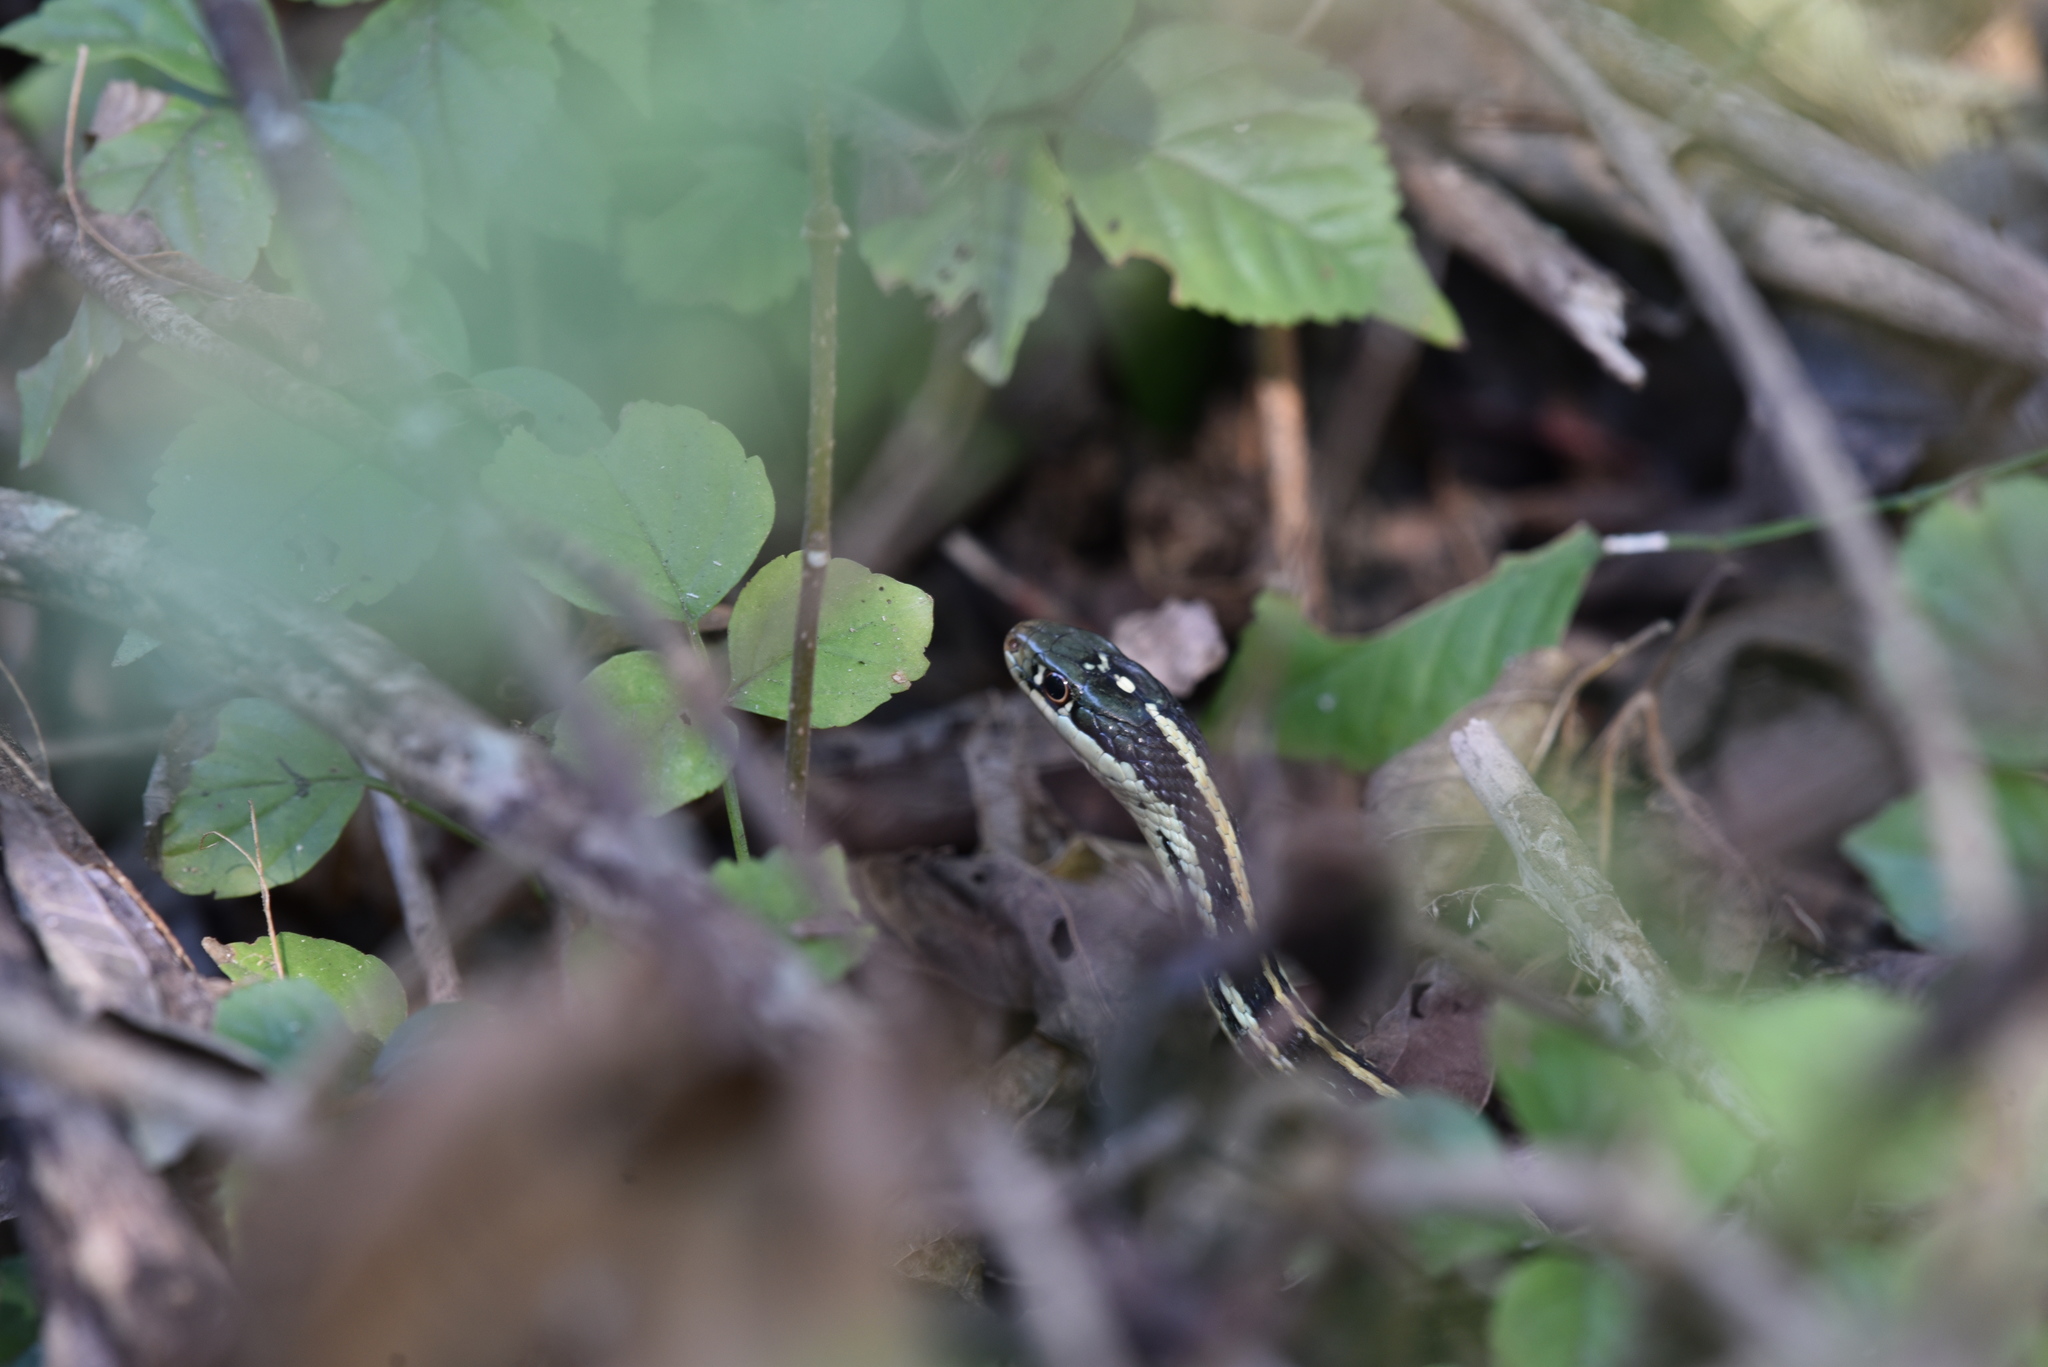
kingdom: Animalia
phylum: Chordata
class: Squamata
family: Colubridae
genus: Thamnophis
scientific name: Thamnophis proximus
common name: Western ribbon snake
